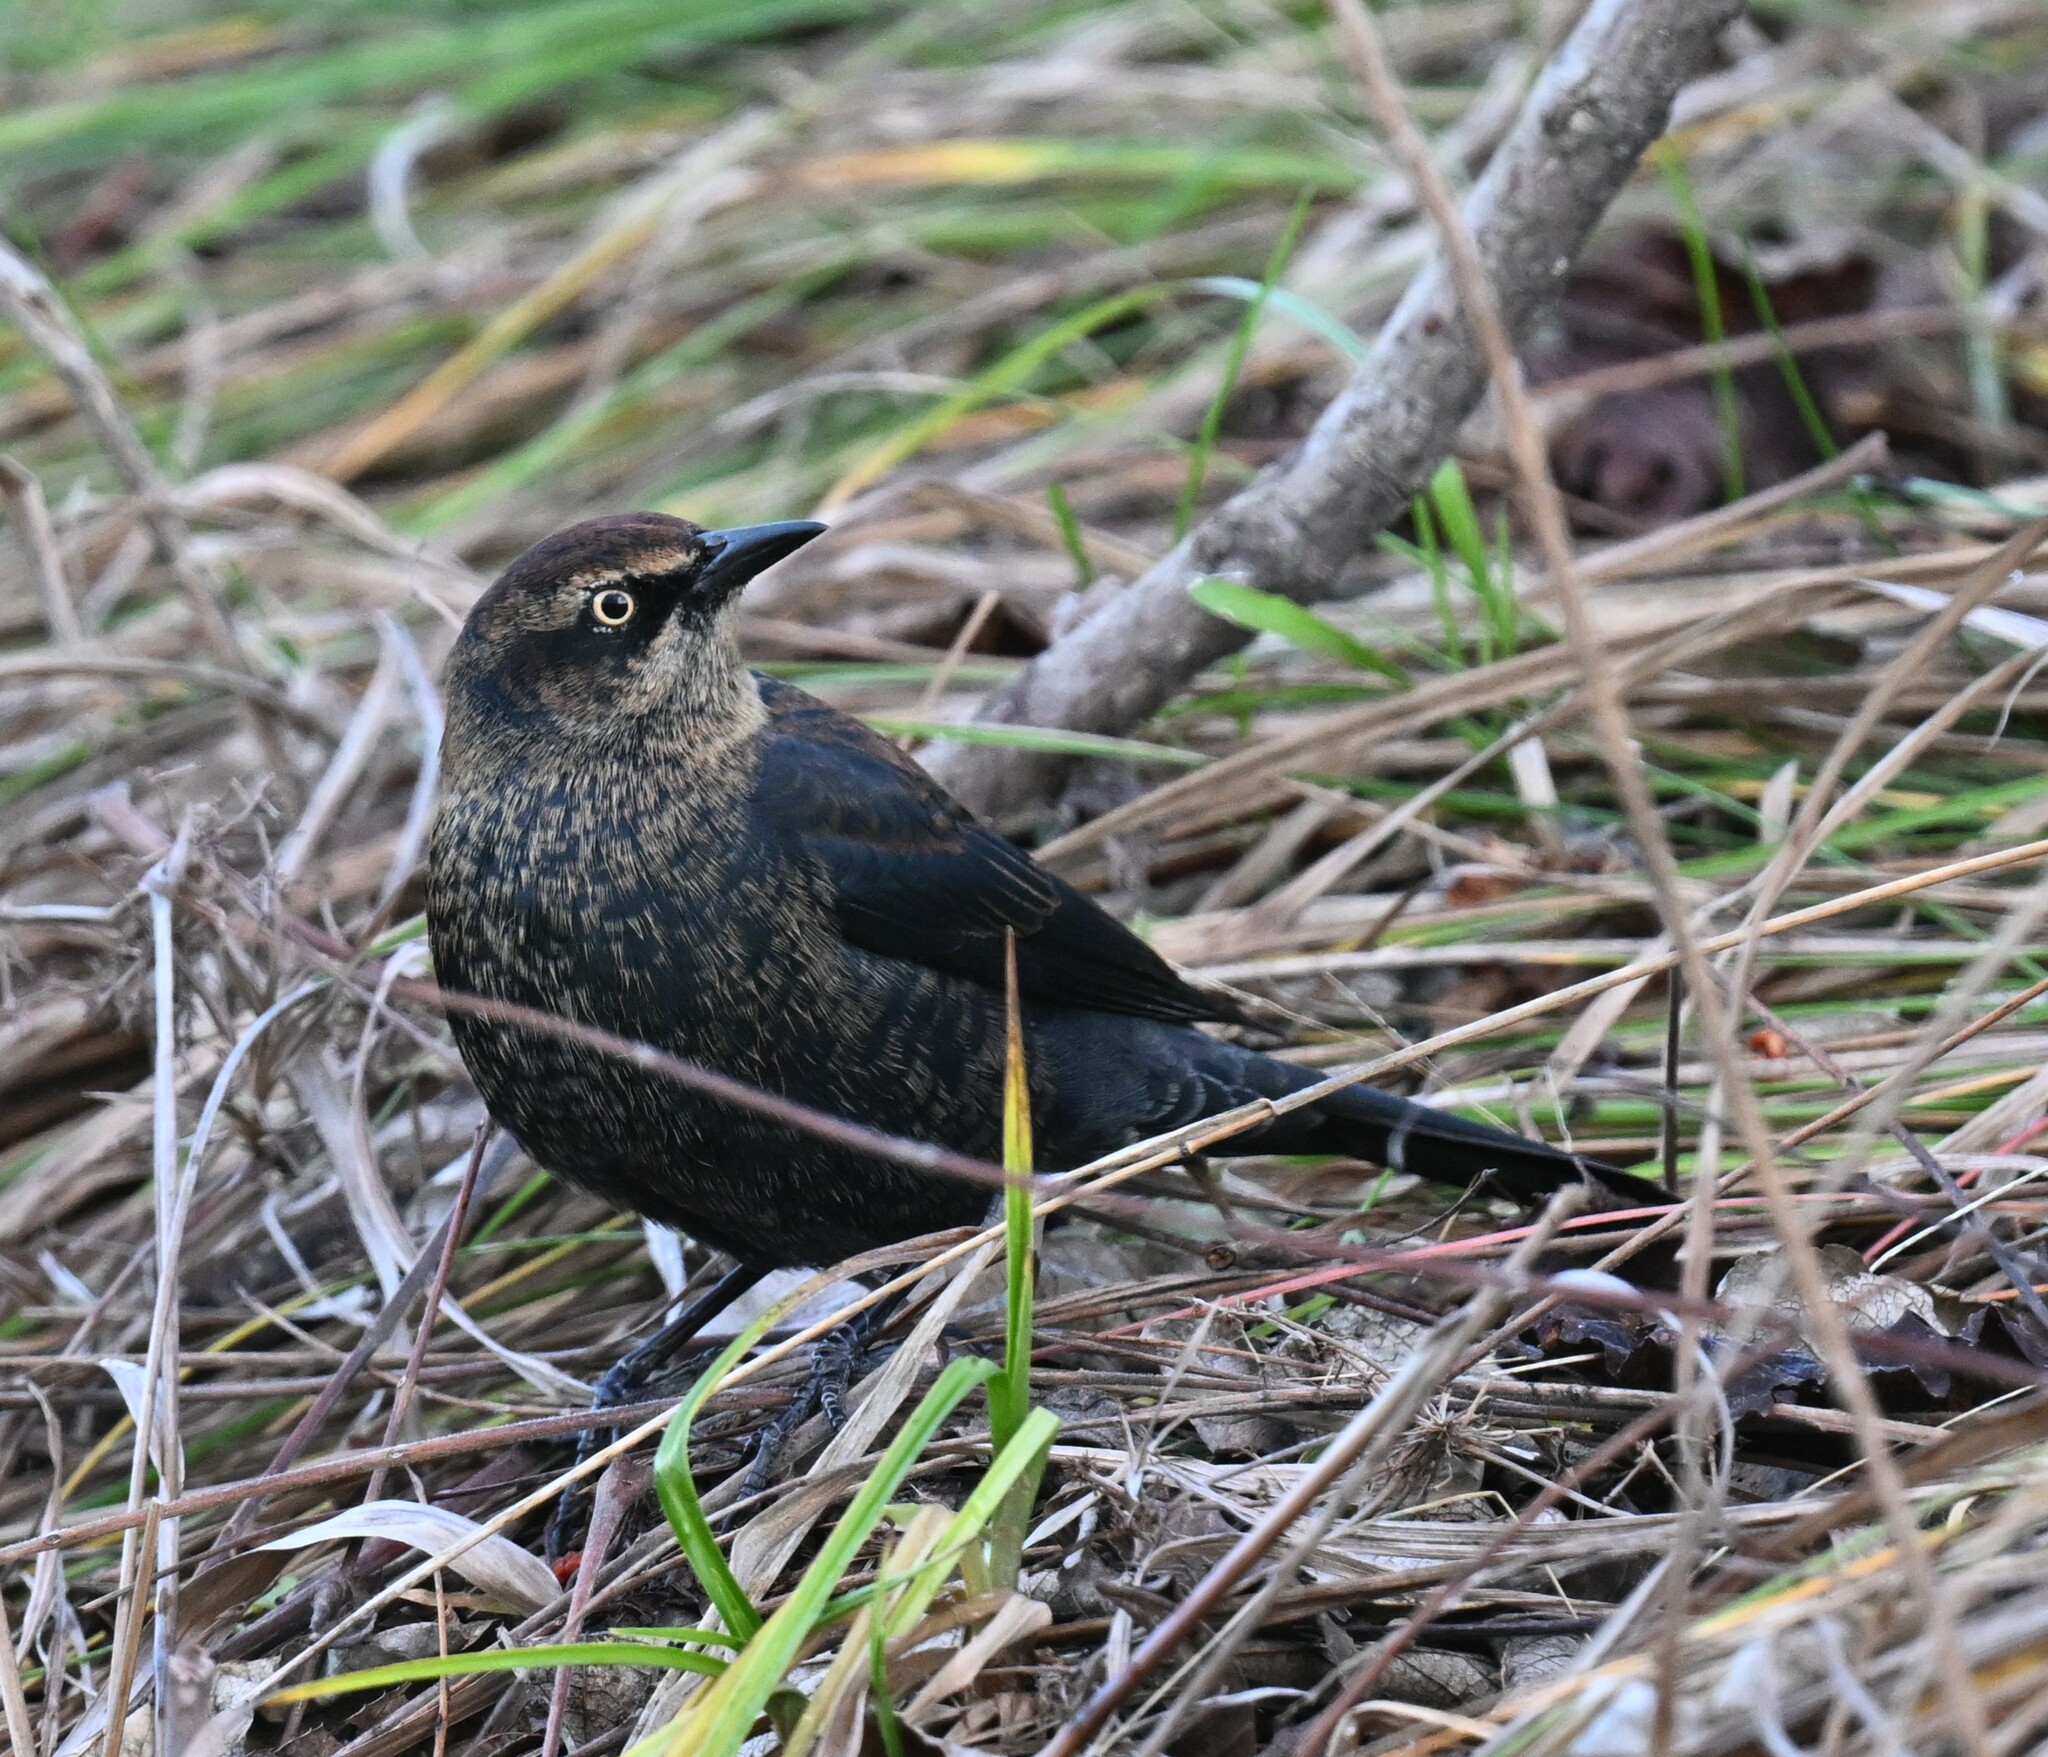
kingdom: Animalia
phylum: Chordata
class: Aves
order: Passeriformes
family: Icteridae
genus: Euphagus
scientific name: Euphagus carolinus
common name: Rusty blackbird
